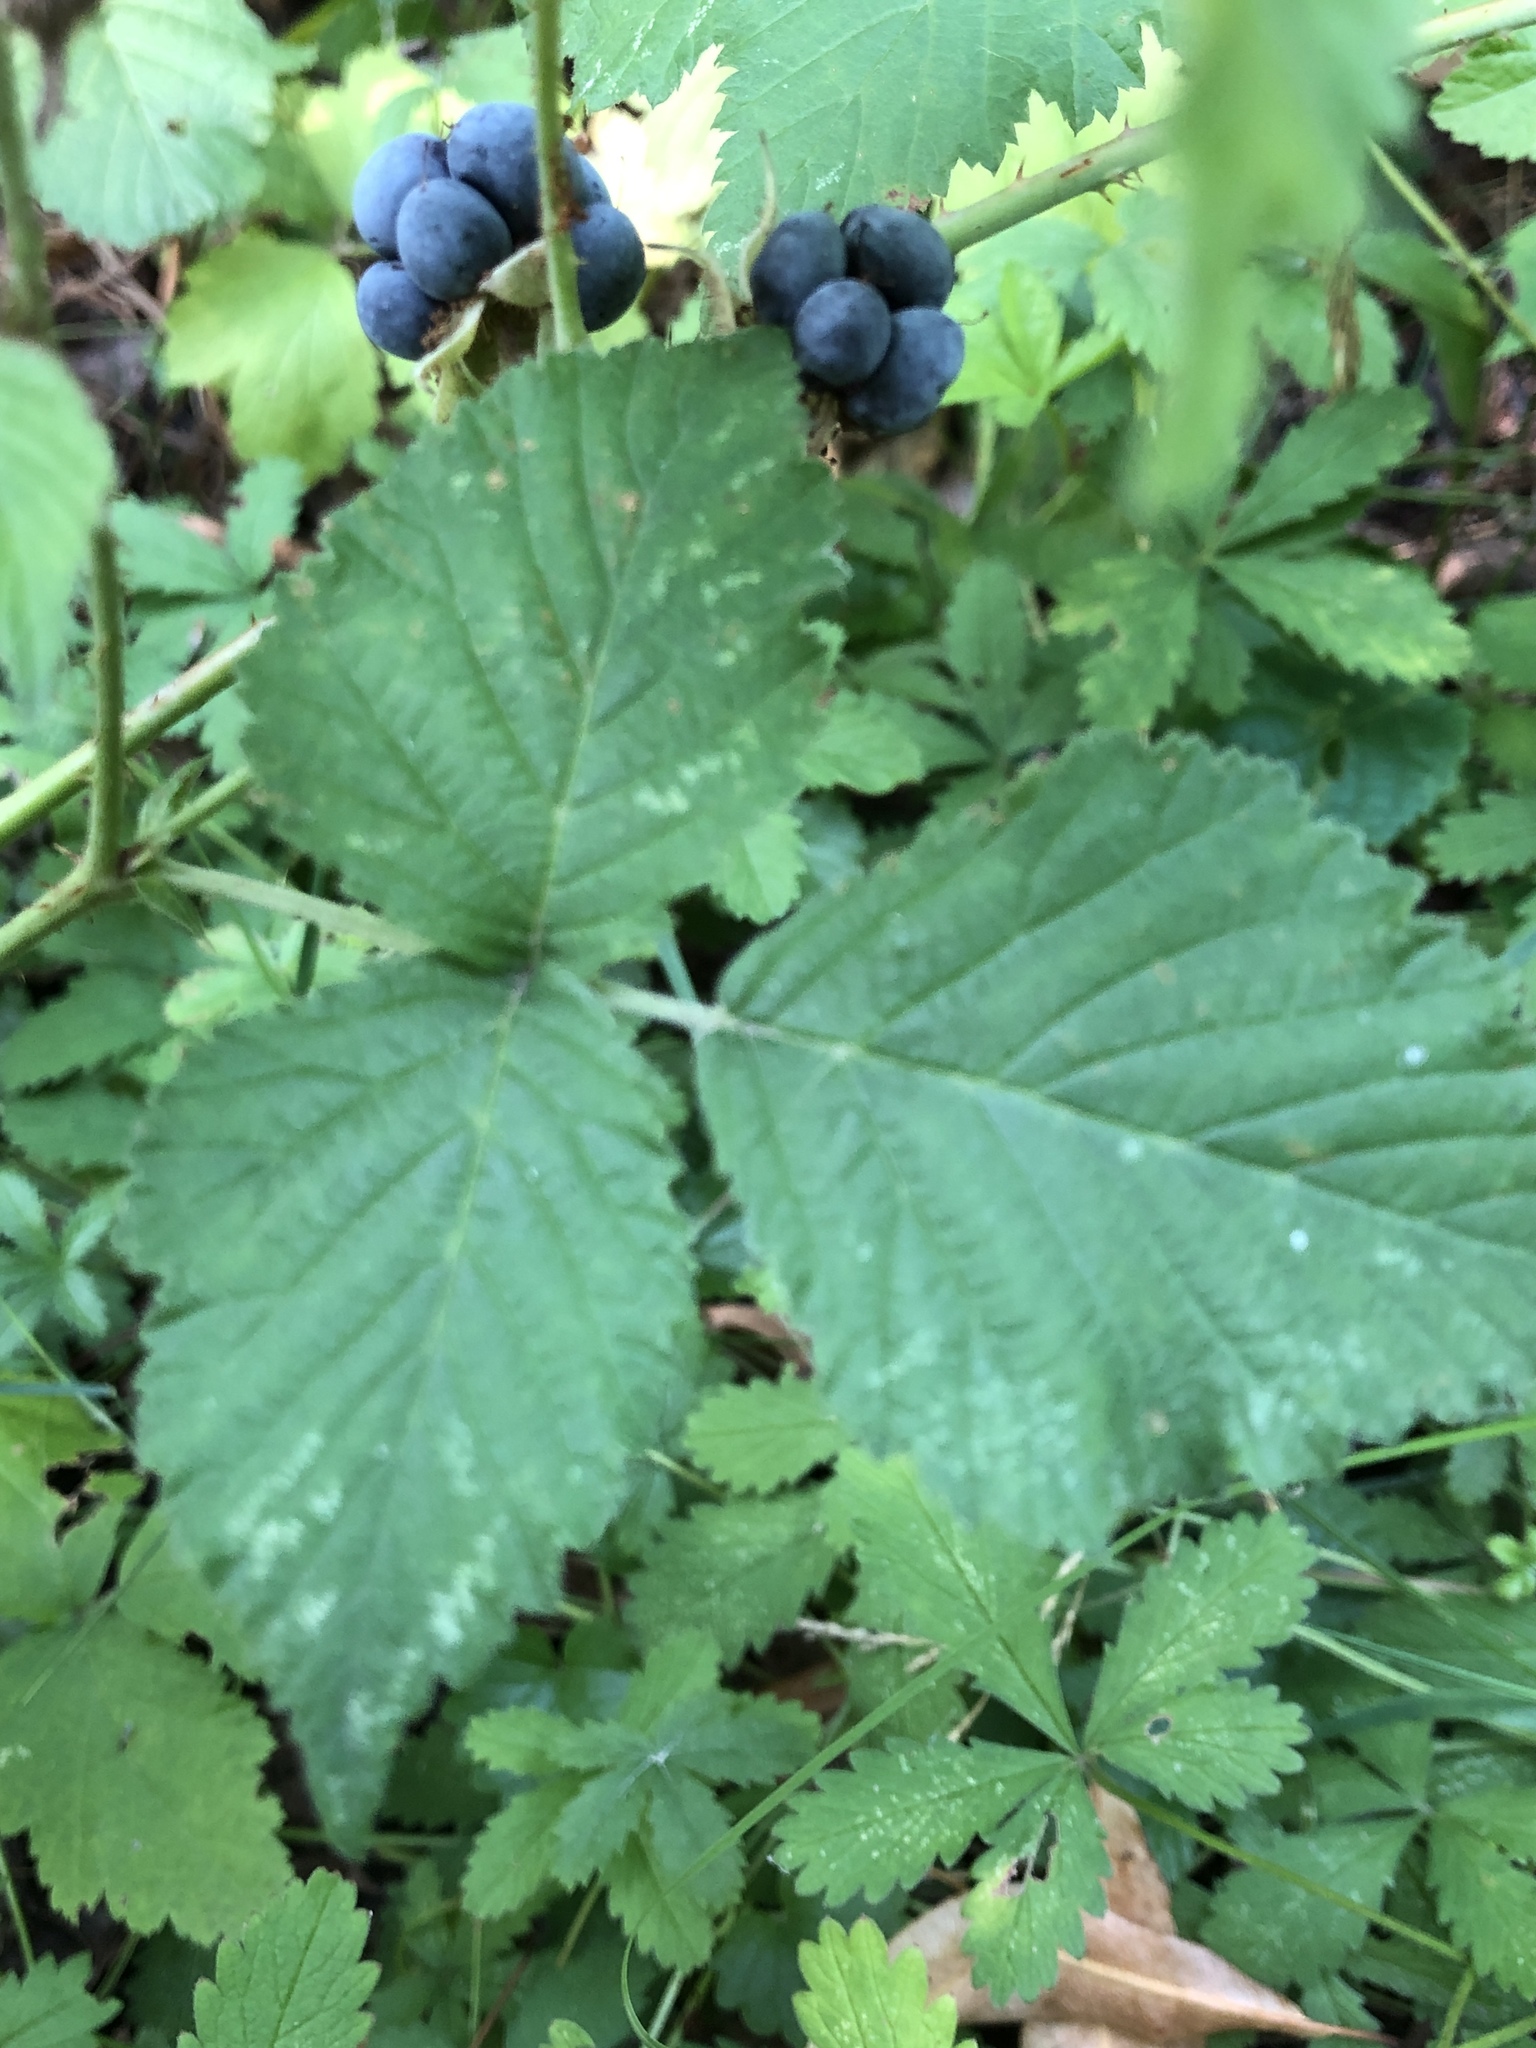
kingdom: Plantae
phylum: Tracheophyta
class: Magnoliopsida
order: Rosales
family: Rosaceae
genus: Rubus
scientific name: Rubus caesius
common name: Dewberry
